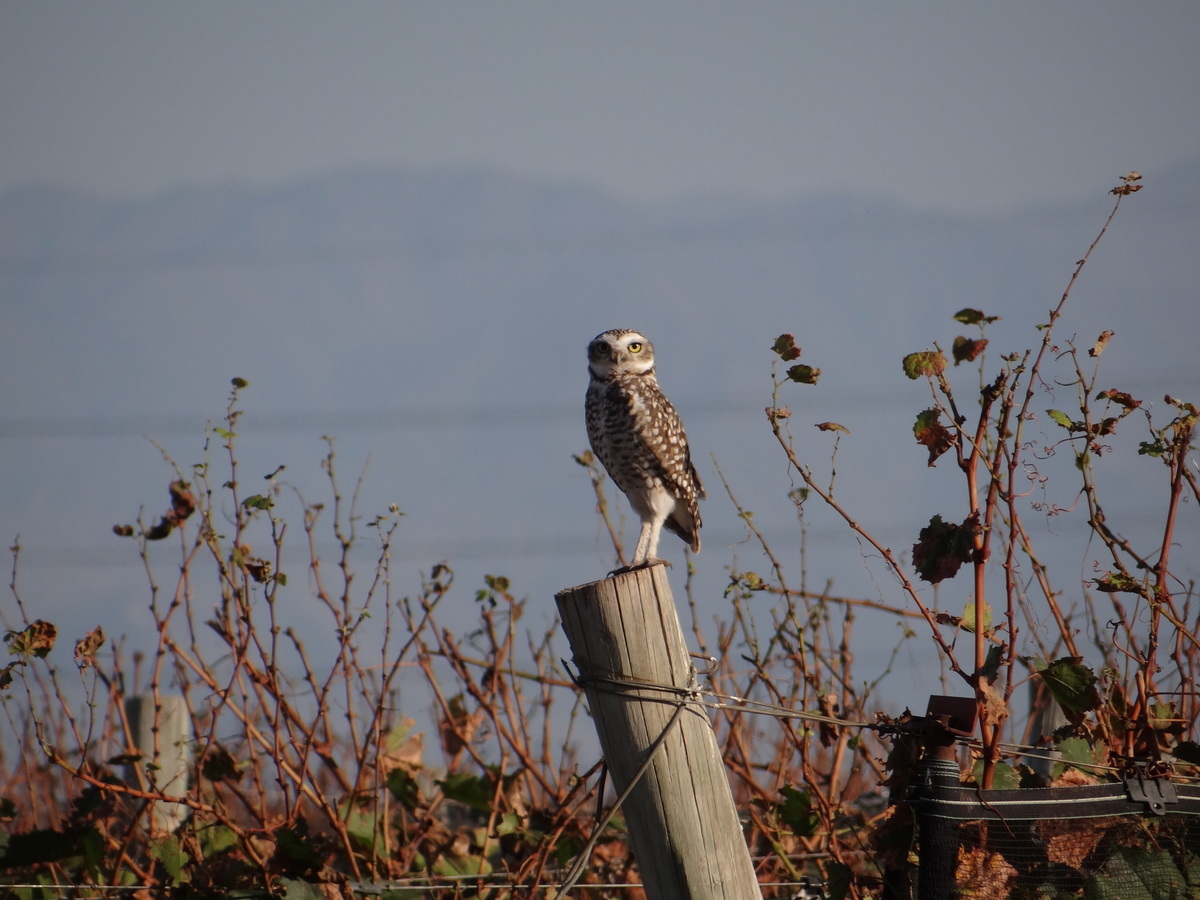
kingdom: Animalia
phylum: Chordata
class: Aves
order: Strigiformes
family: Strigidae
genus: Athene
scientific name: Athene cunicularia
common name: Burrowing owl
